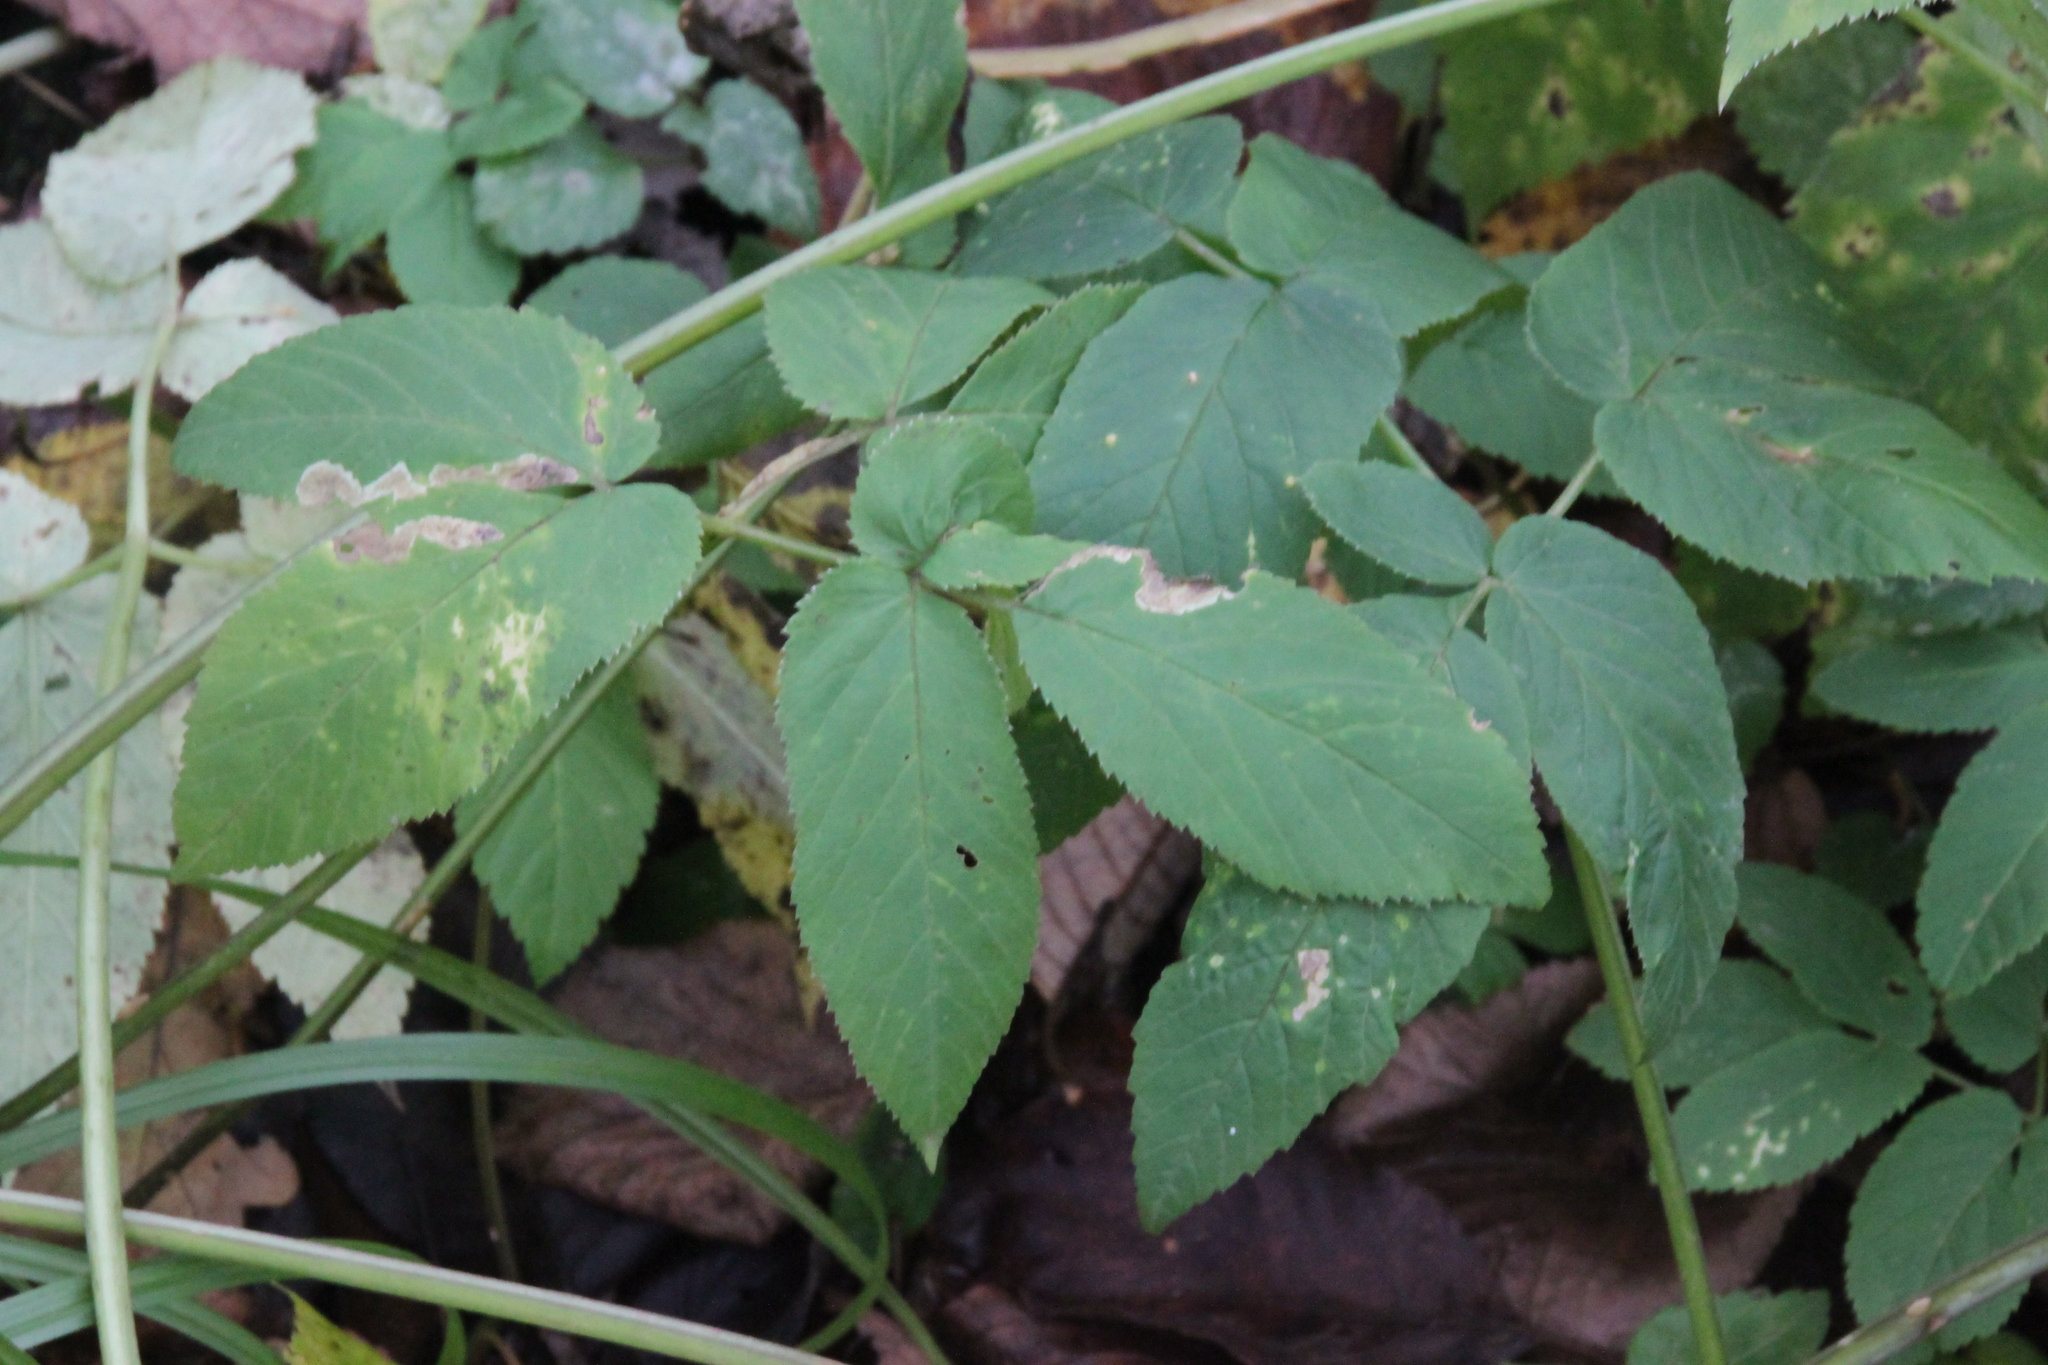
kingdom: Plantae
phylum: Tracheophyta
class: Magnoliopsida
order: Apiales
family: Apiaceae
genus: Aegopodium
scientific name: Aegopodium podagraria
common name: Ground-elder
